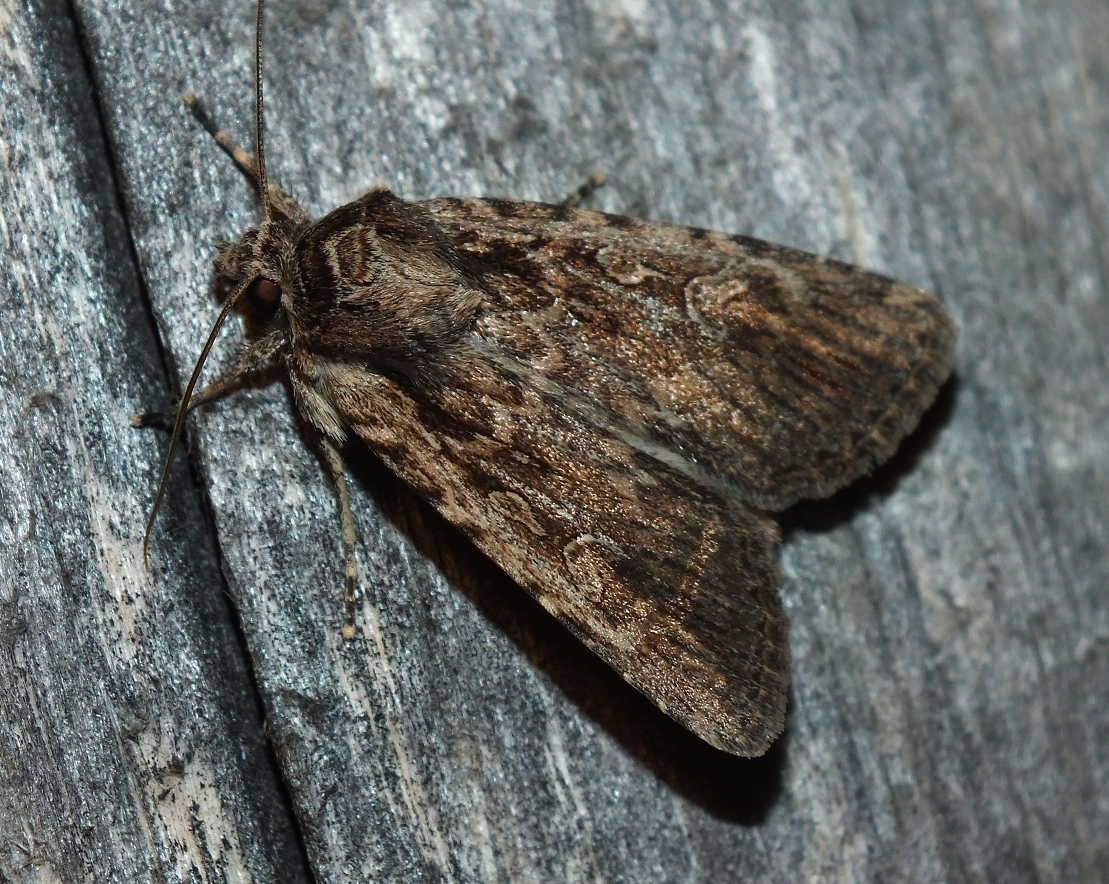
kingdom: Animalia
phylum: Arthropoda
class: Insecta
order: Lepidoptera
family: Noctuidae
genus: Dichagyris
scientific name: Dichagyris orientis
